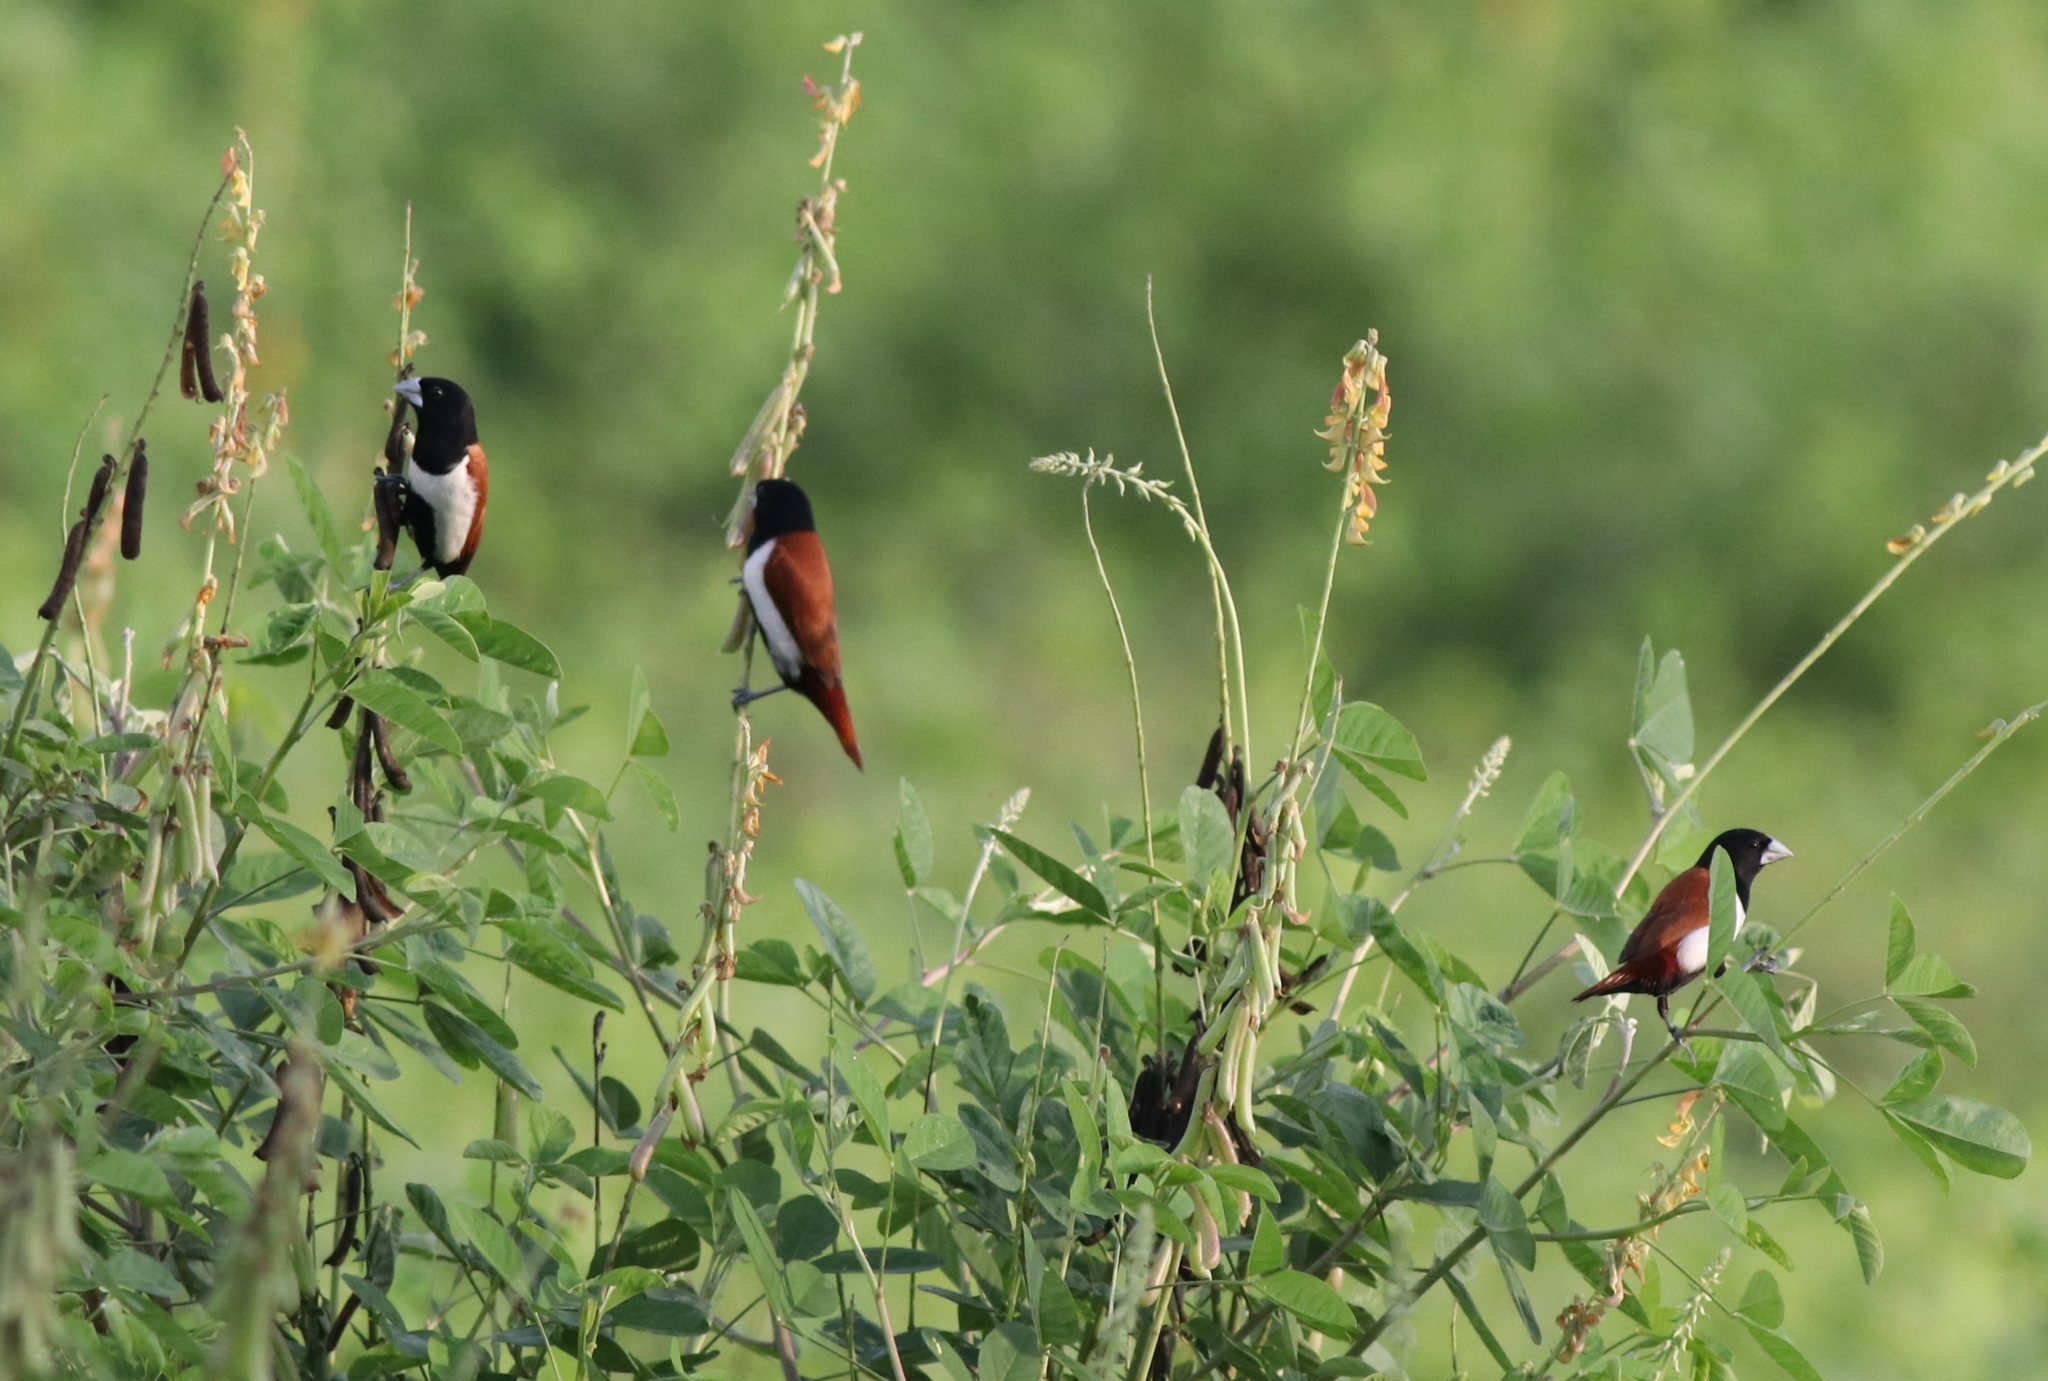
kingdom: Animalia
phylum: Chordata
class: Aves
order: Passeriformes
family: Estrildidae
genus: Lonchura
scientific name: Lonchura malacca
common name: Tricolored munia
